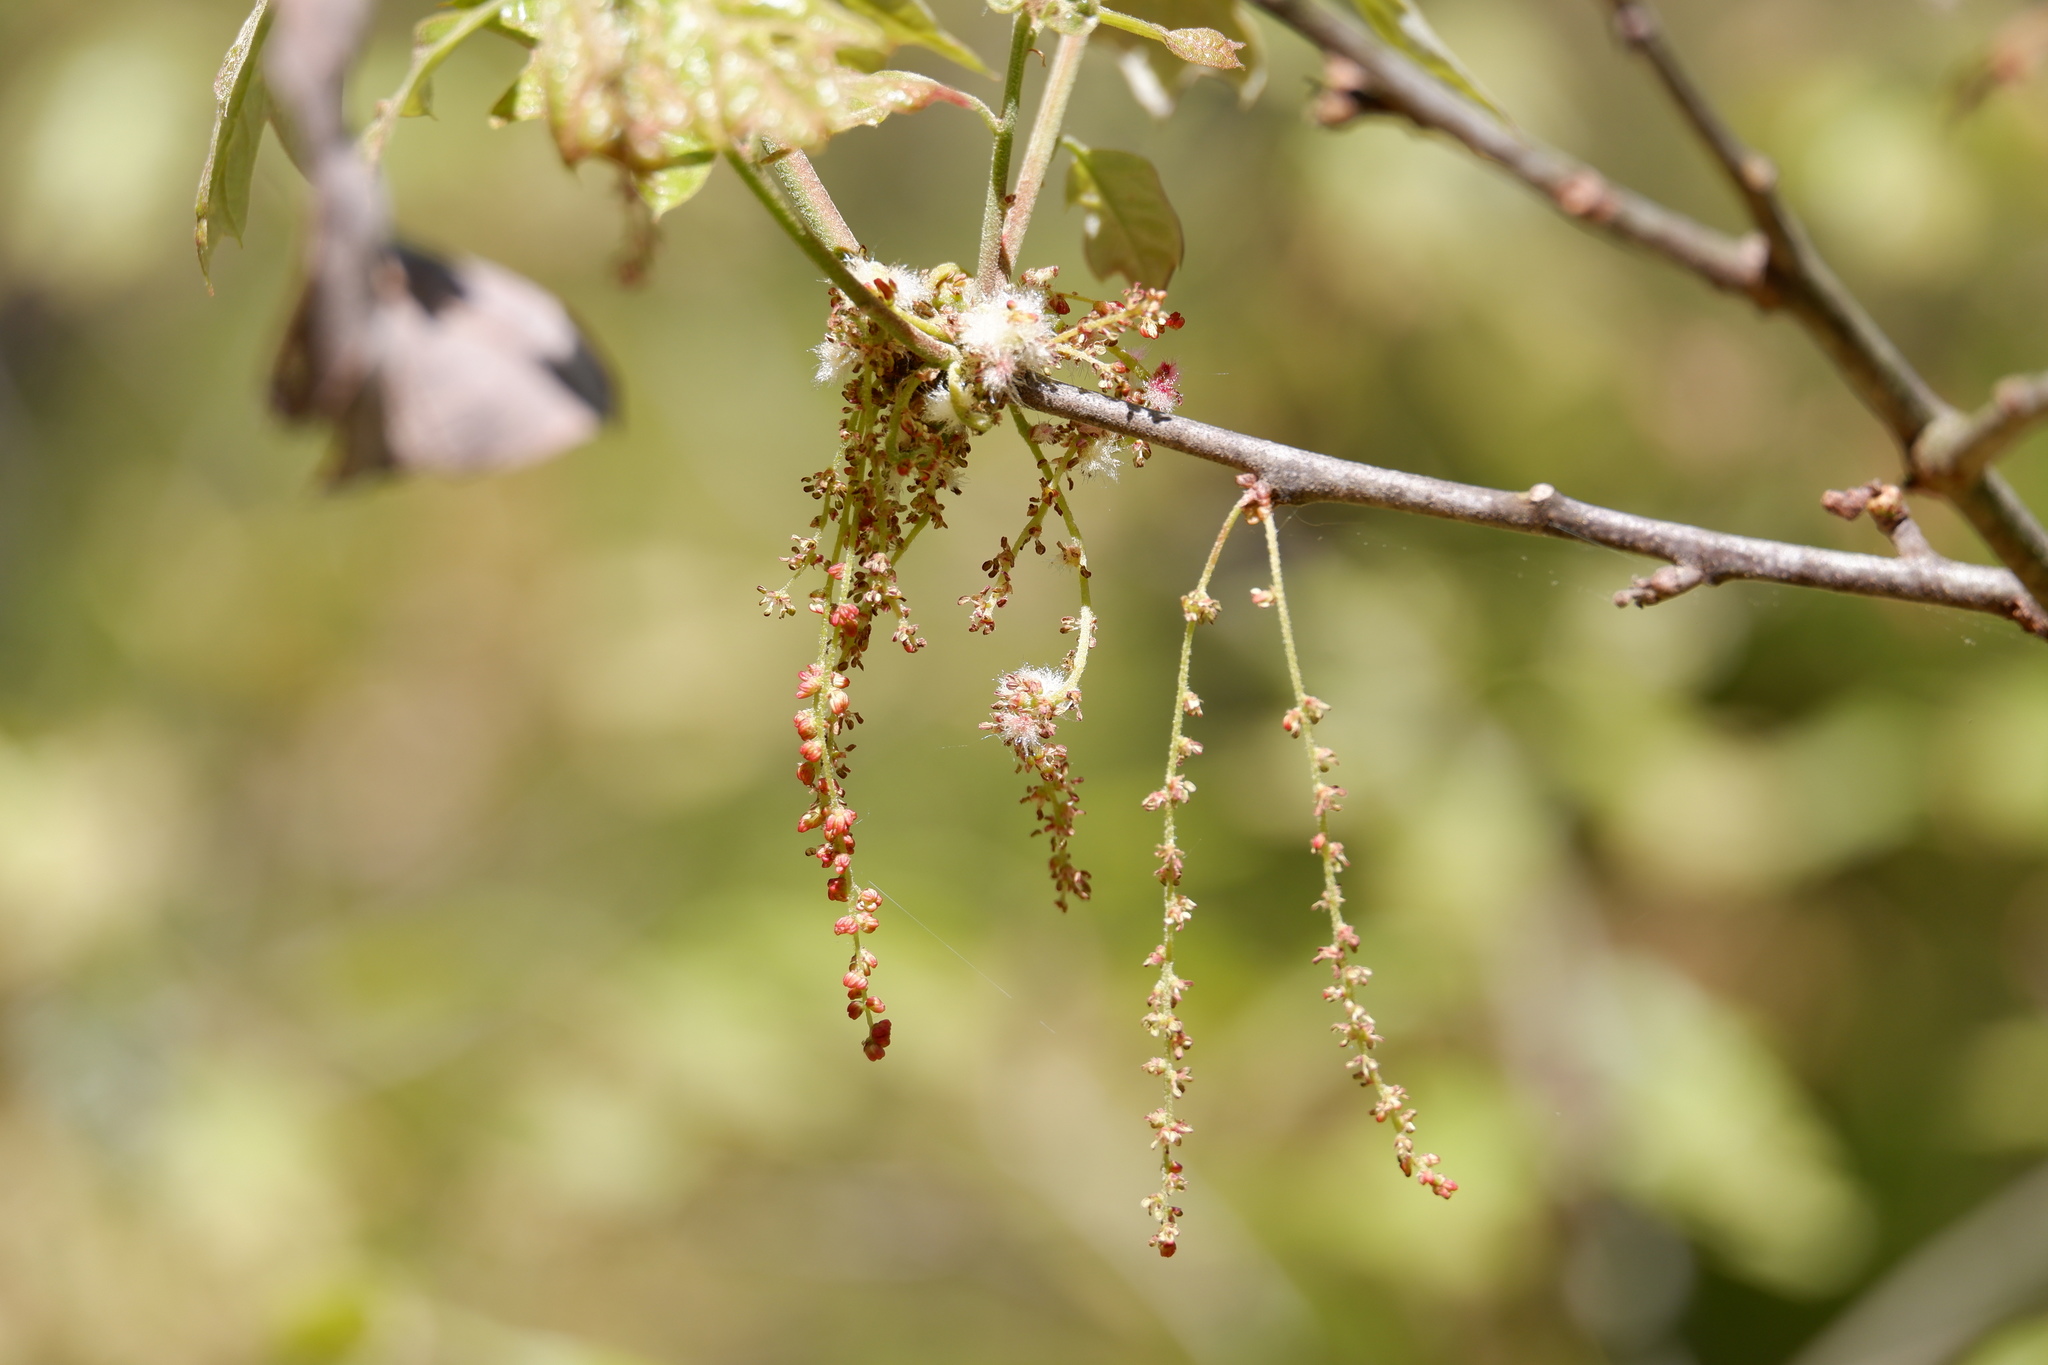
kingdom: Animalia
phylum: Arthropoda
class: Insecta
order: Hymenoptera
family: Cynipidae
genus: Callirhytis
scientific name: Callirhytis
